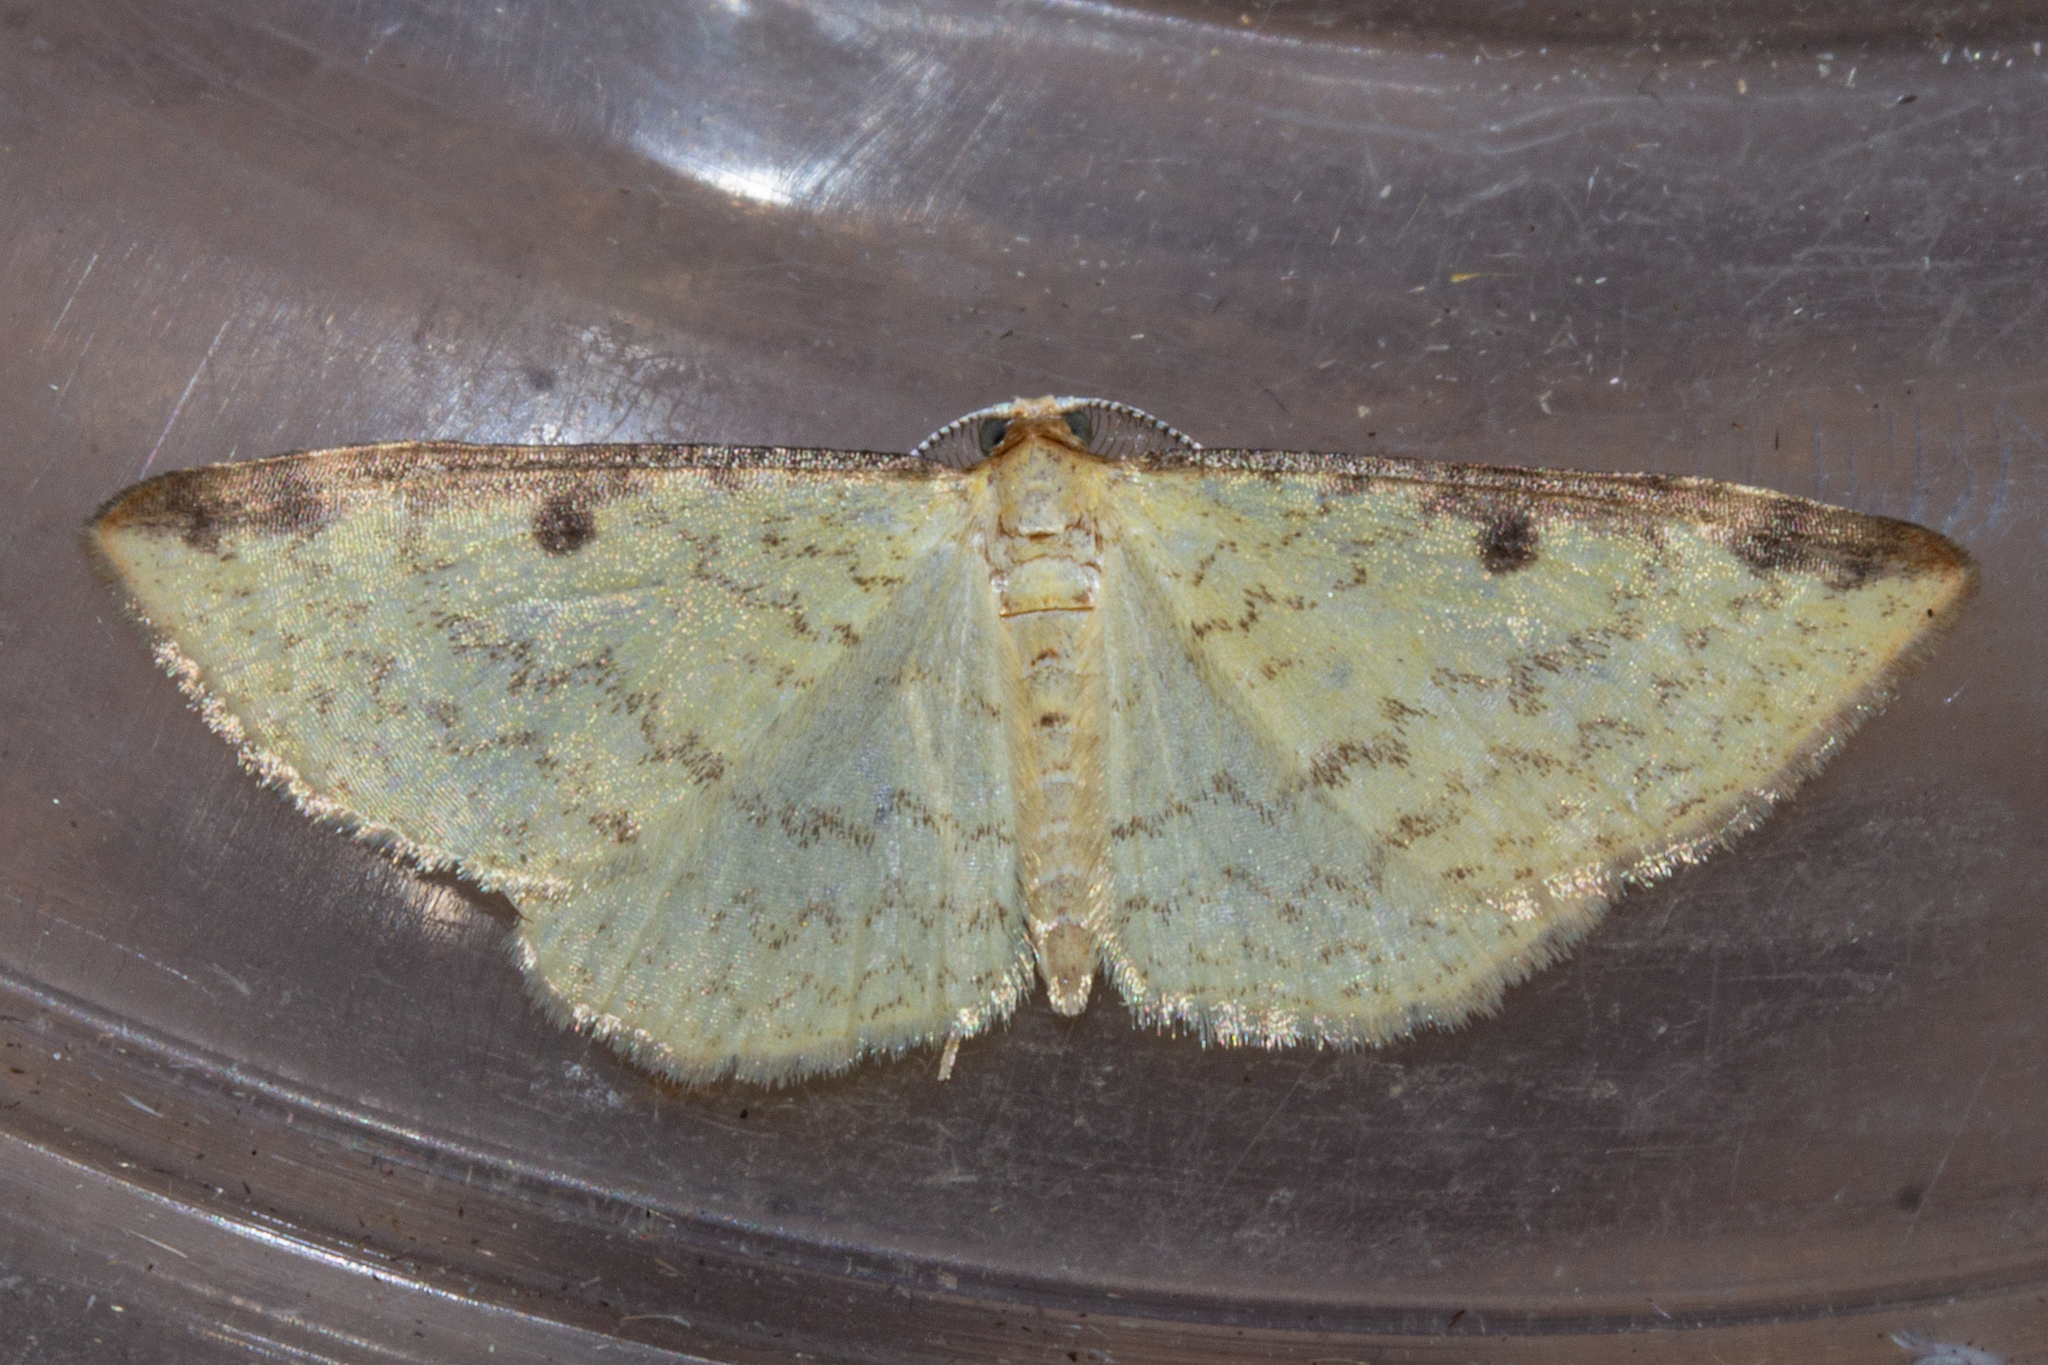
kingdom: Animalia
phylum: Arthropoda
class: Insecta
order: Lepidoptera
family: Geometridae
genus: Epiphryne
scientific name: Epiphryne undosata
